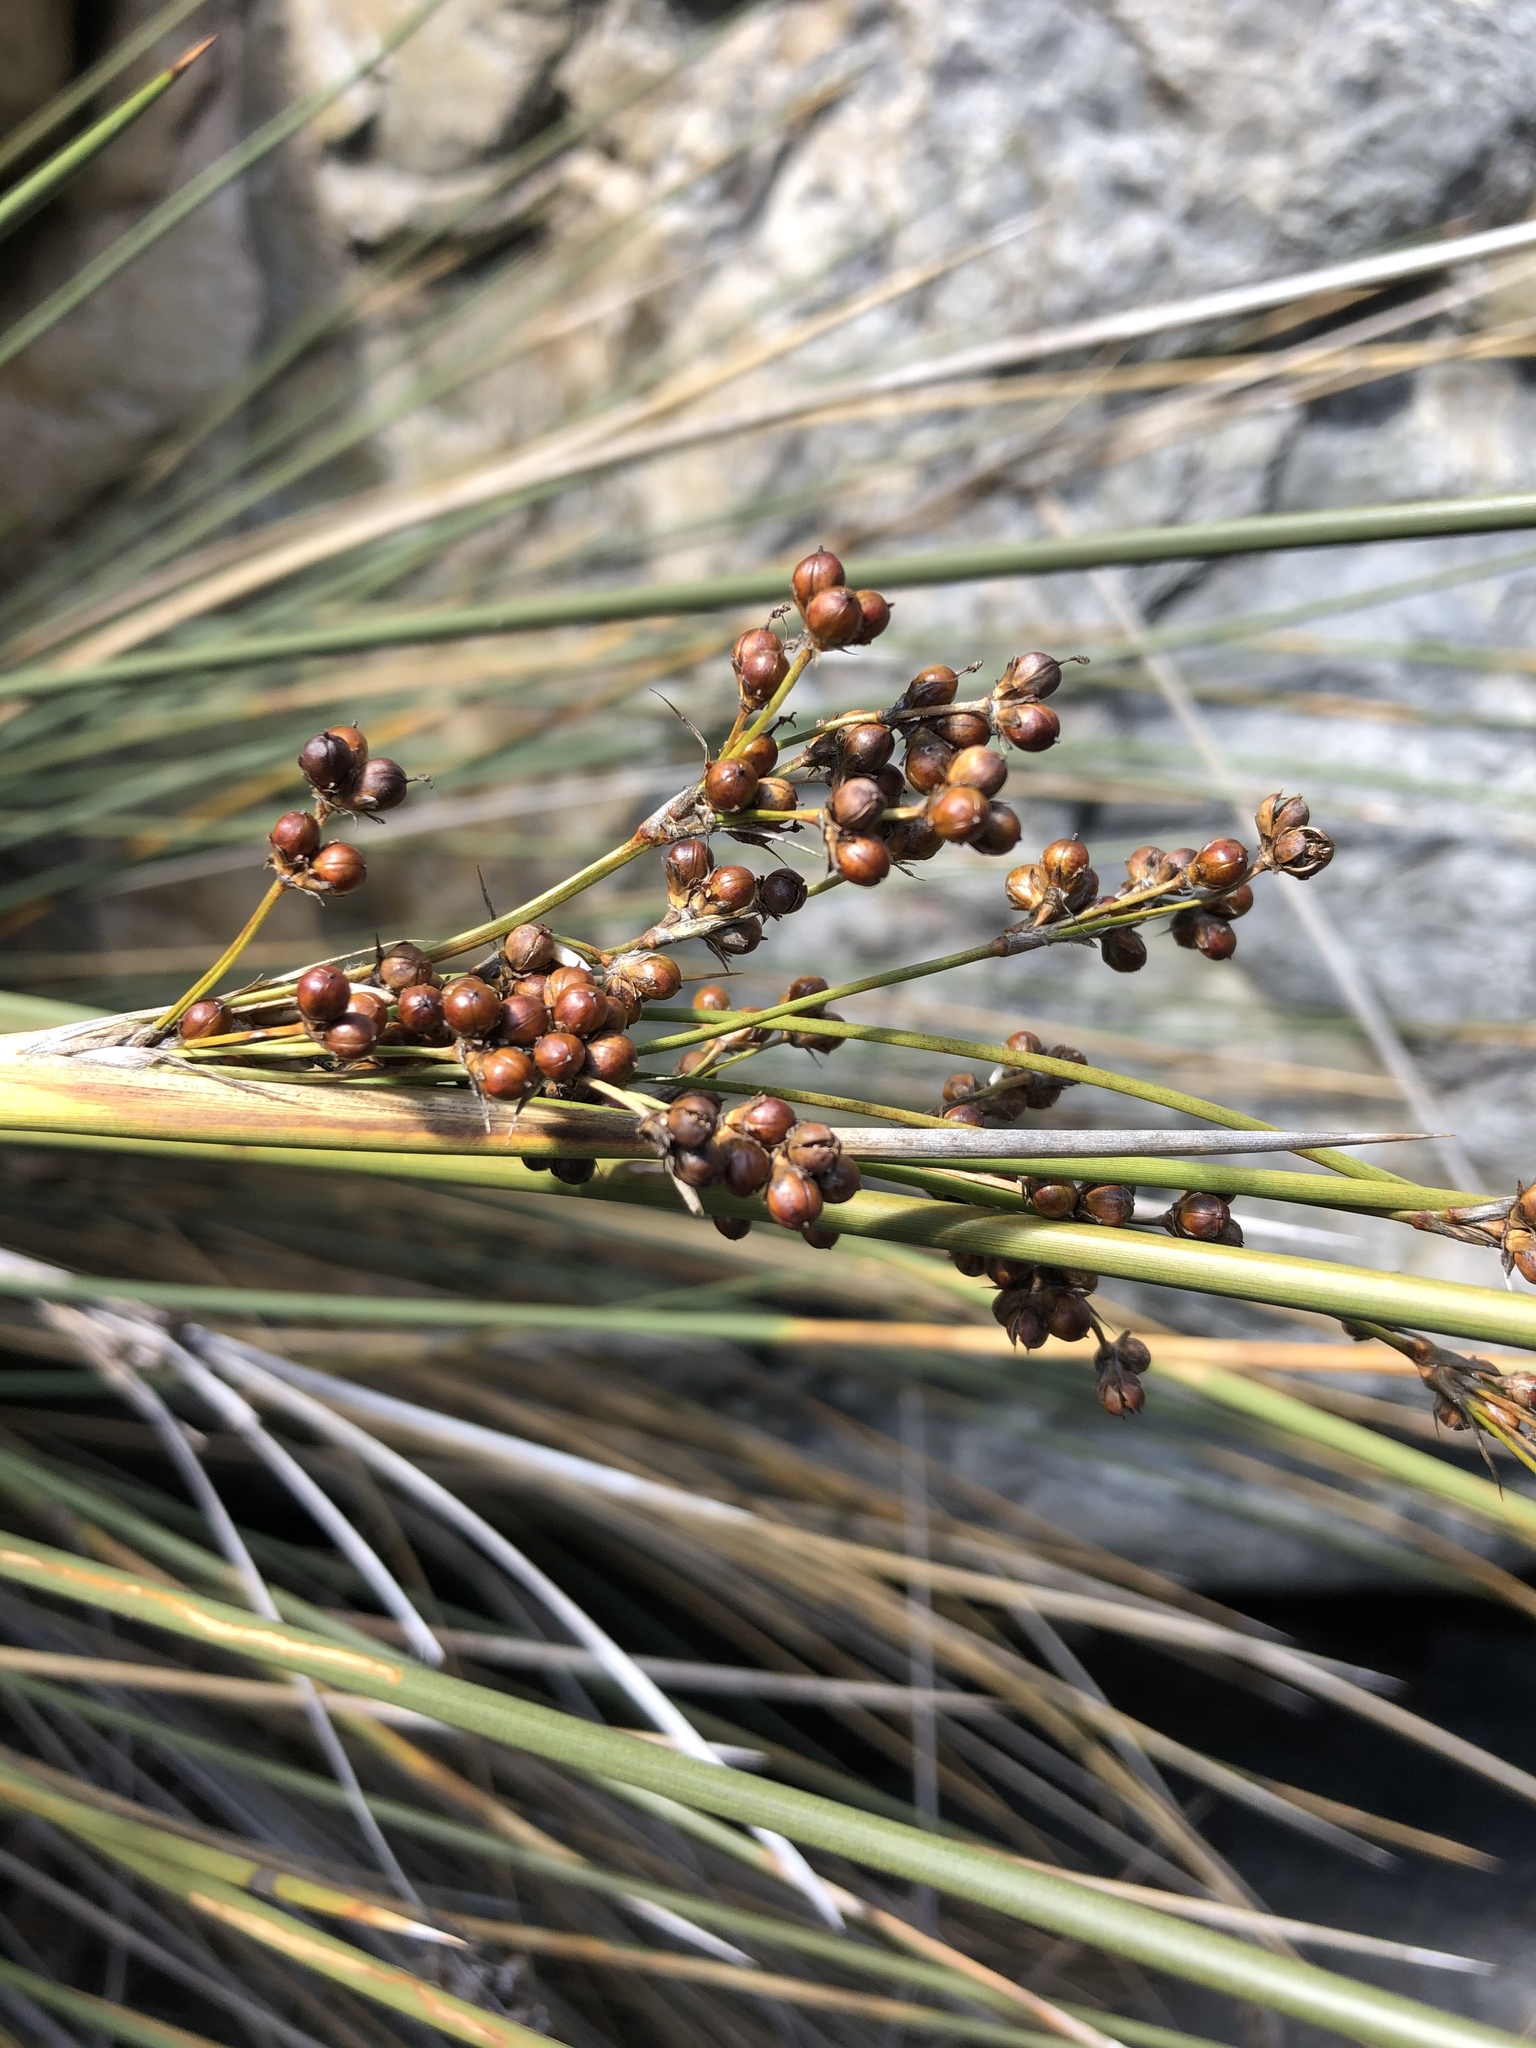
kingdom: Plantae
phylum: Tracheophyta
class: Liliopsida
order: Poales
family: Juncaceae
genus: Juncus
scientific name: Juncus acutus
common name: Sharp rush
